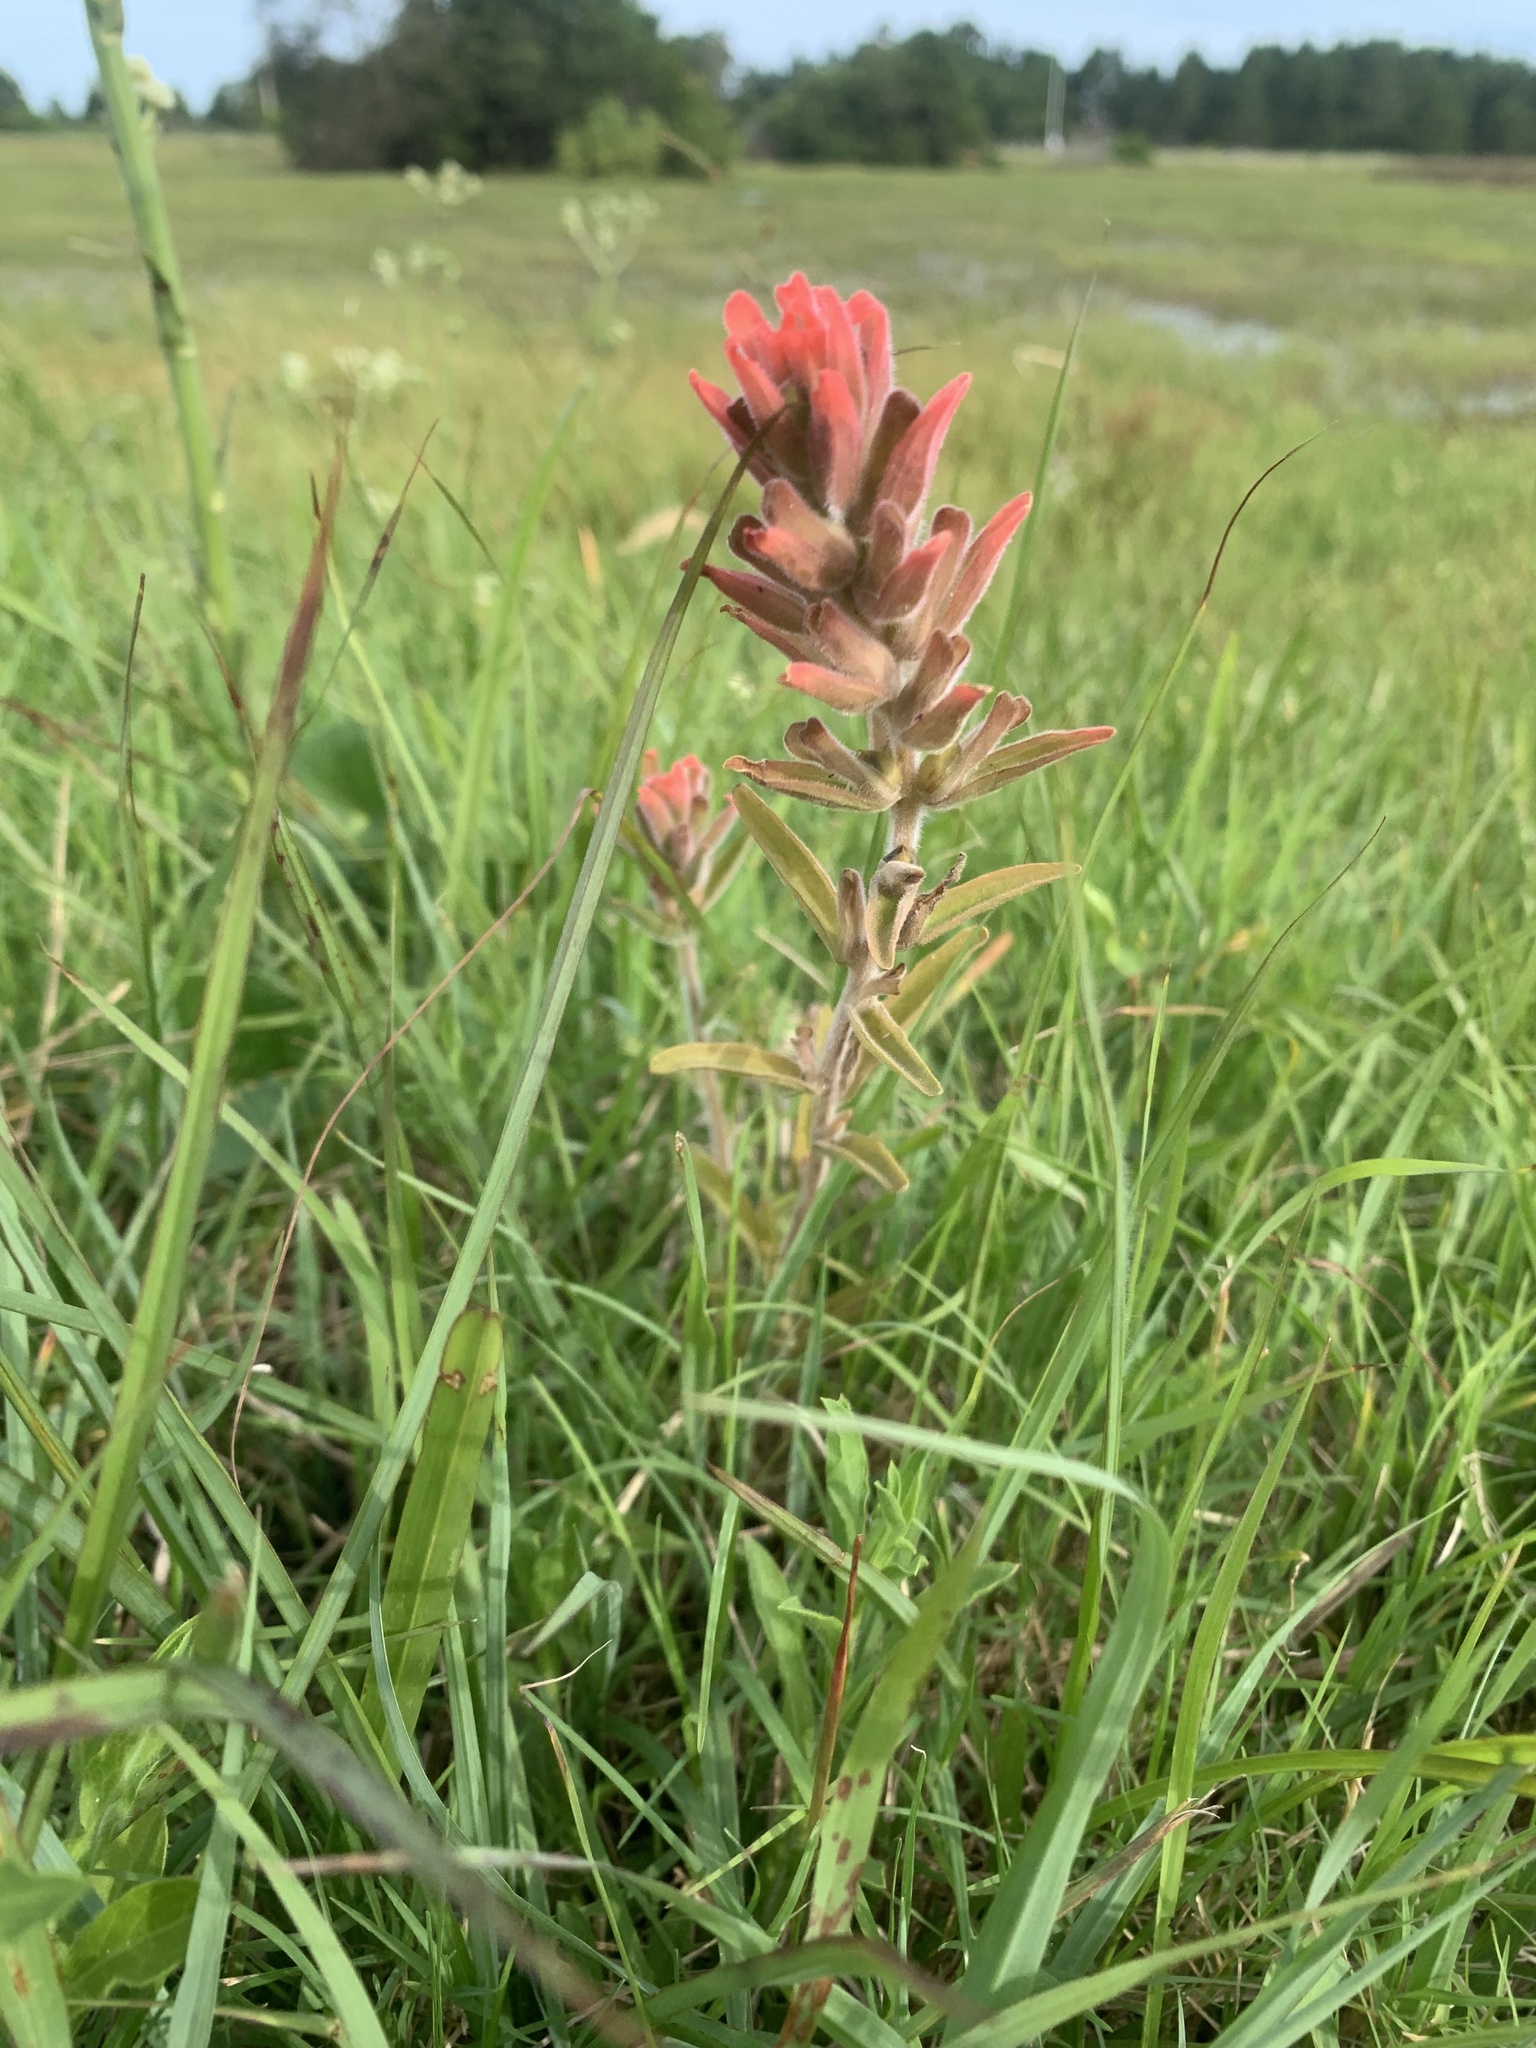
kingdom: Plantae
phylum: Tracheophyta
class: Magnoliopsida
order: Lamiales
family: Orobanchaceae
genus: Castilleja
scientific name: Castilleja arvensis
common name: Indian paintbrush
